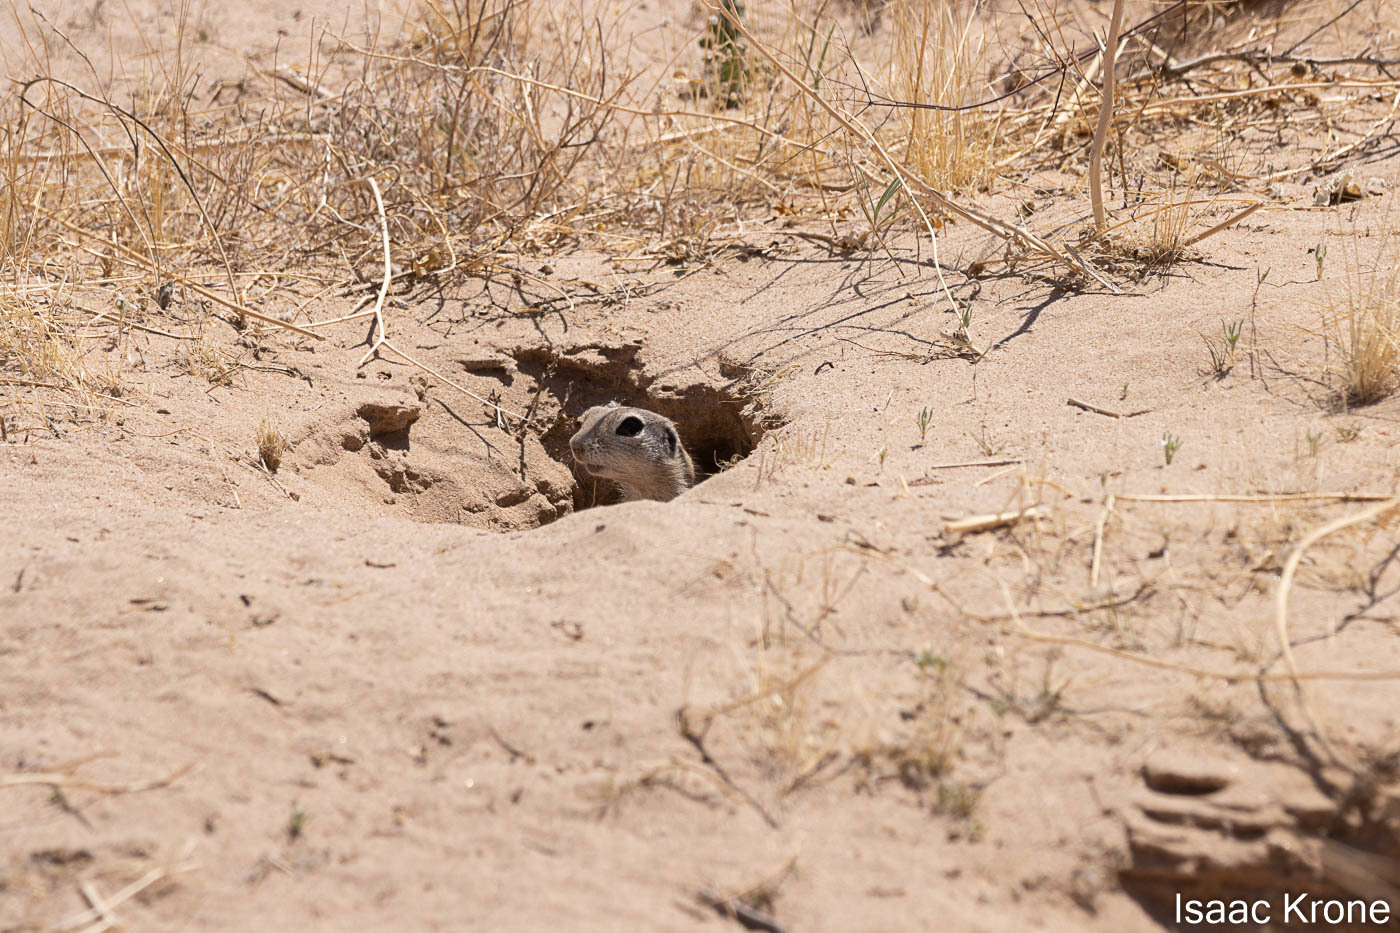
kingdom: Animalia
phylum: Chordata
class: Mammalia
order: Rodentia
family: Sciuridae
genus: Xerospermophilus
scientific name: Xerospermophilus tereticaudus
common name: Round-tailed ground squirrel
